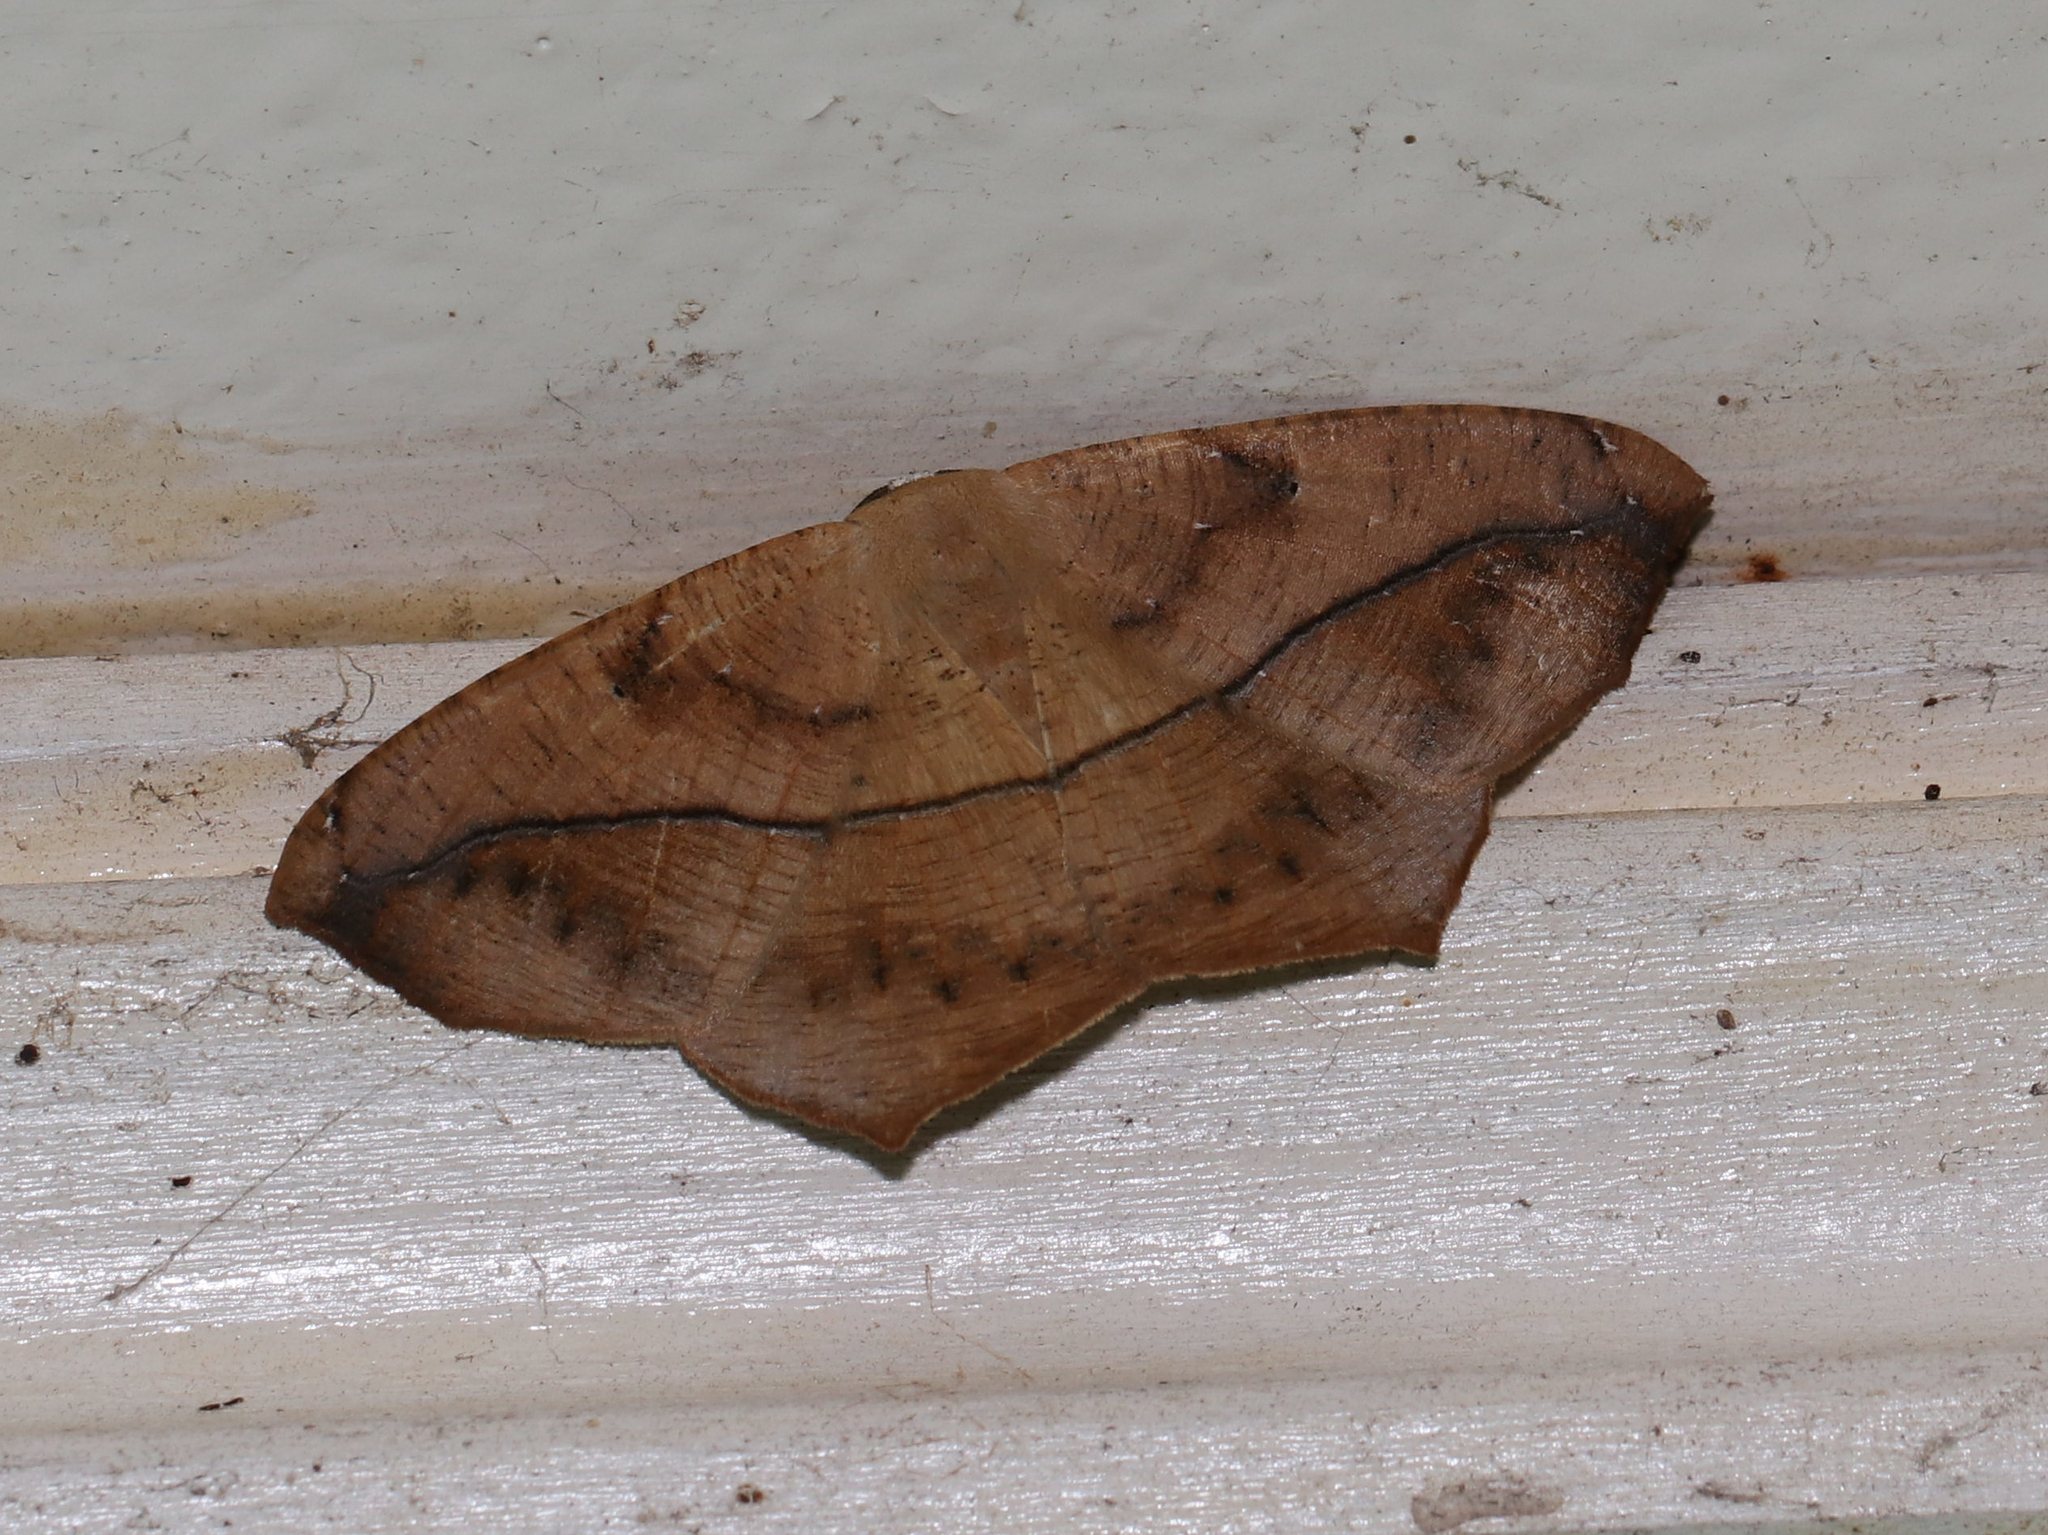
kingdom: Animalia
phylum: Arthropoda
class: Insecta
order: Lepidoptera
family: Geometridae
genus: Prochoerodes
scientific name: Prochoerodes lineola
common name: Large maple spanworm
